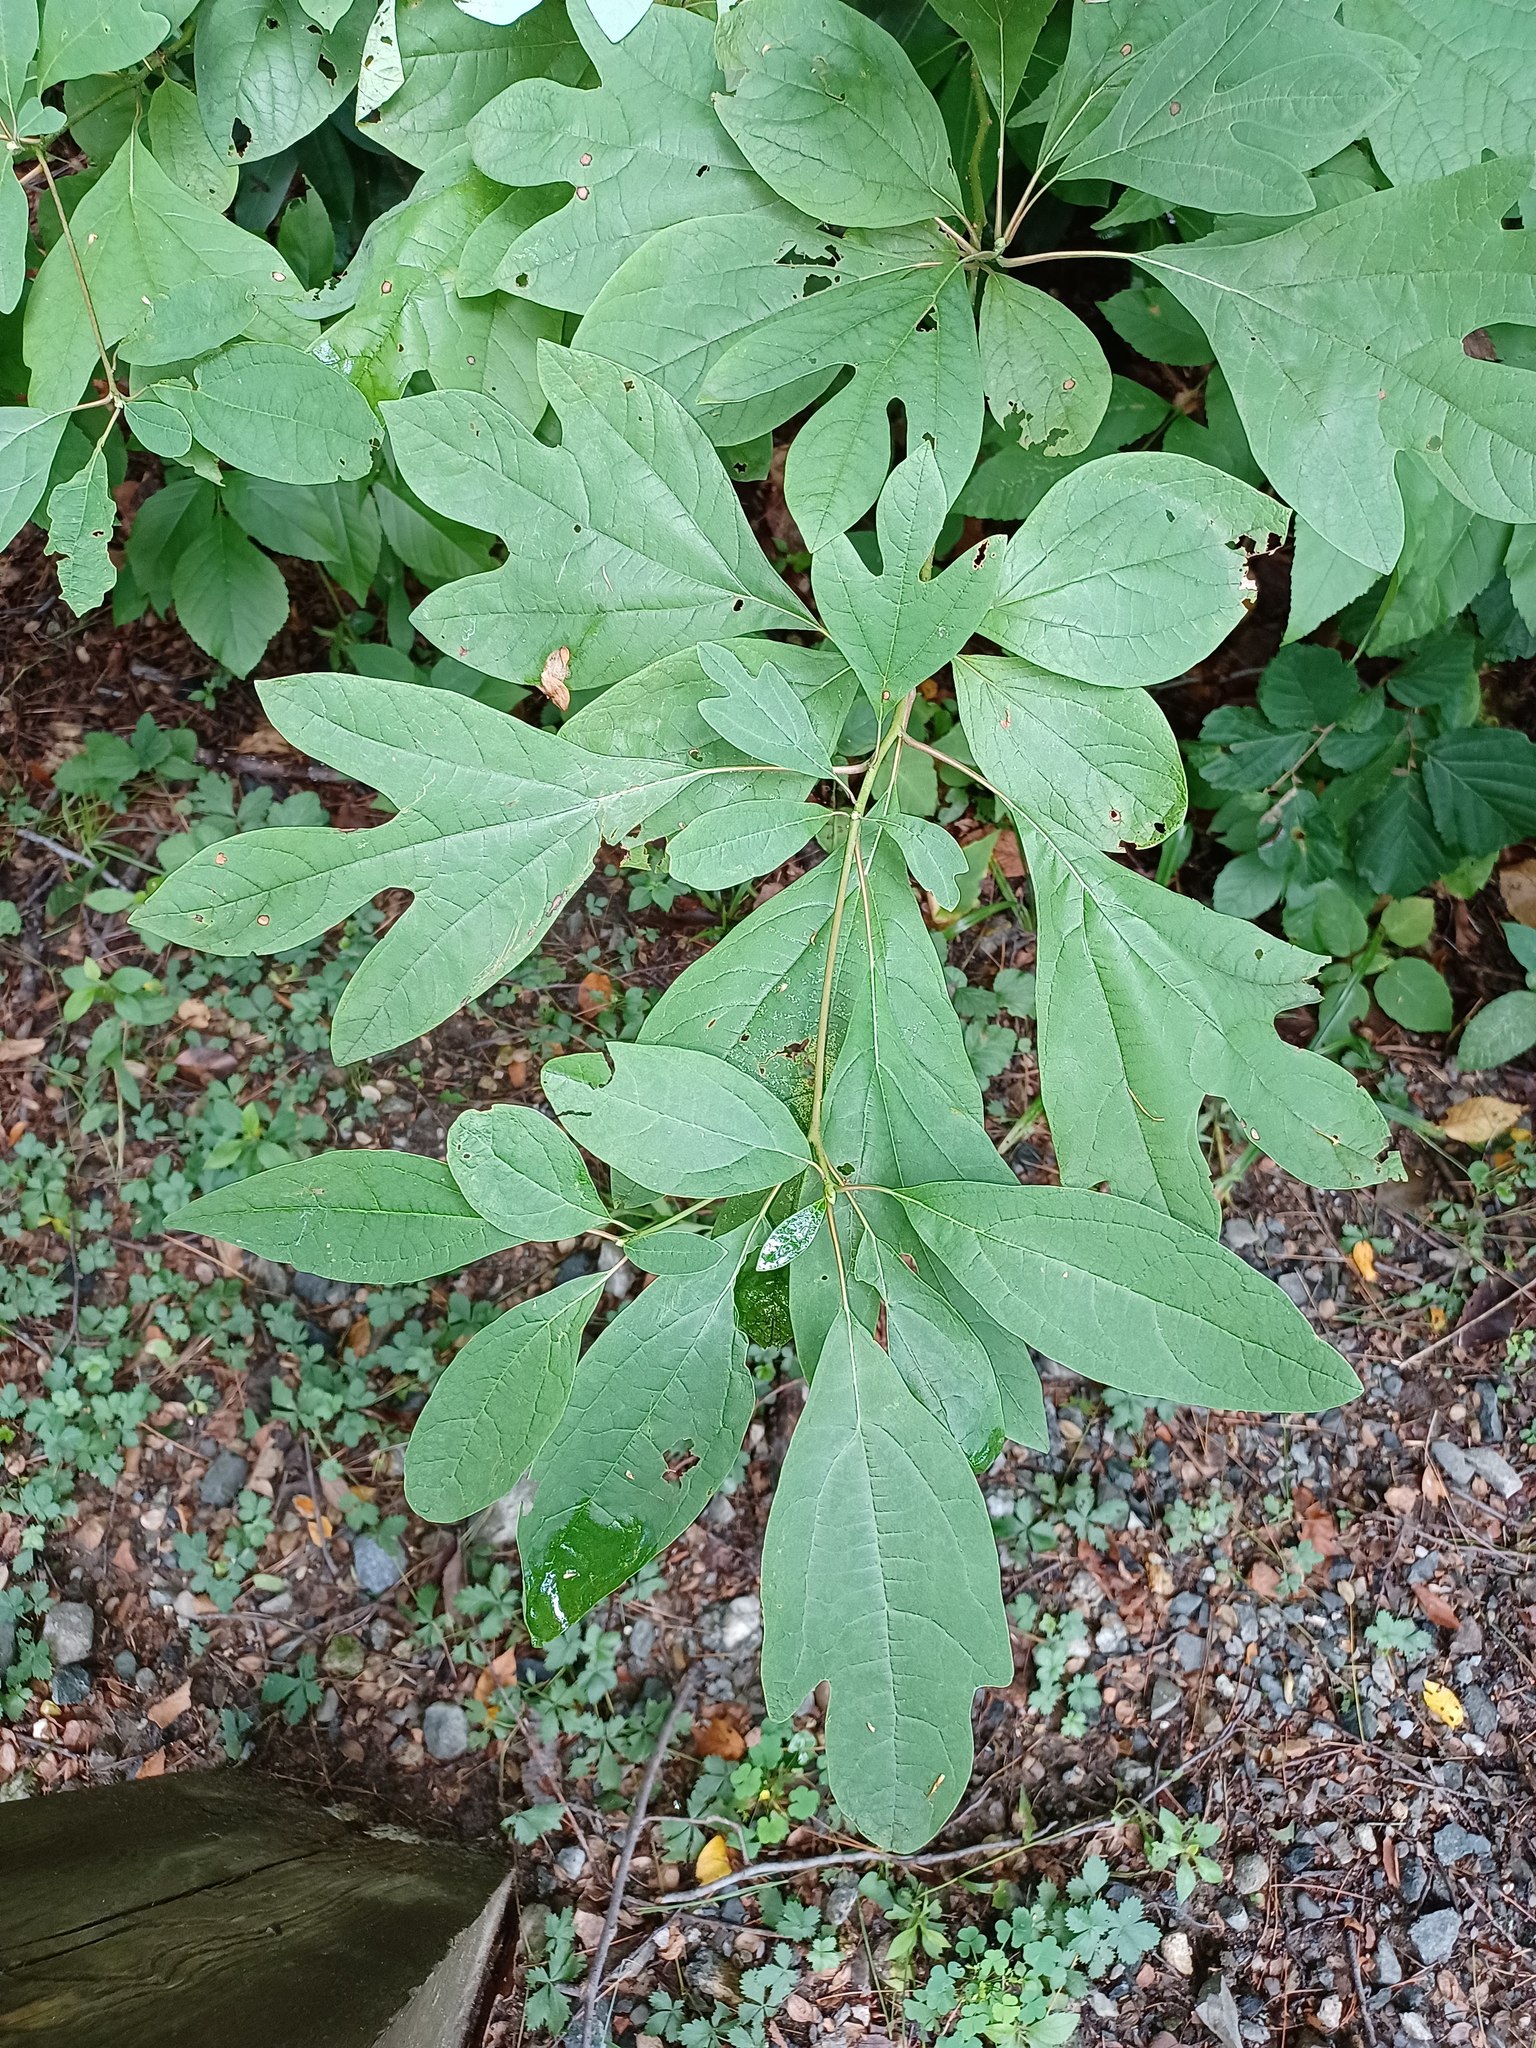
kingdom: Plantae
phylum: Tracheophyta
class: Magnoliopsida
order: Laurales
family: Lauraceae
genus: Sassafras
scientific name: Sassafras albidum
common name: Sassafras
